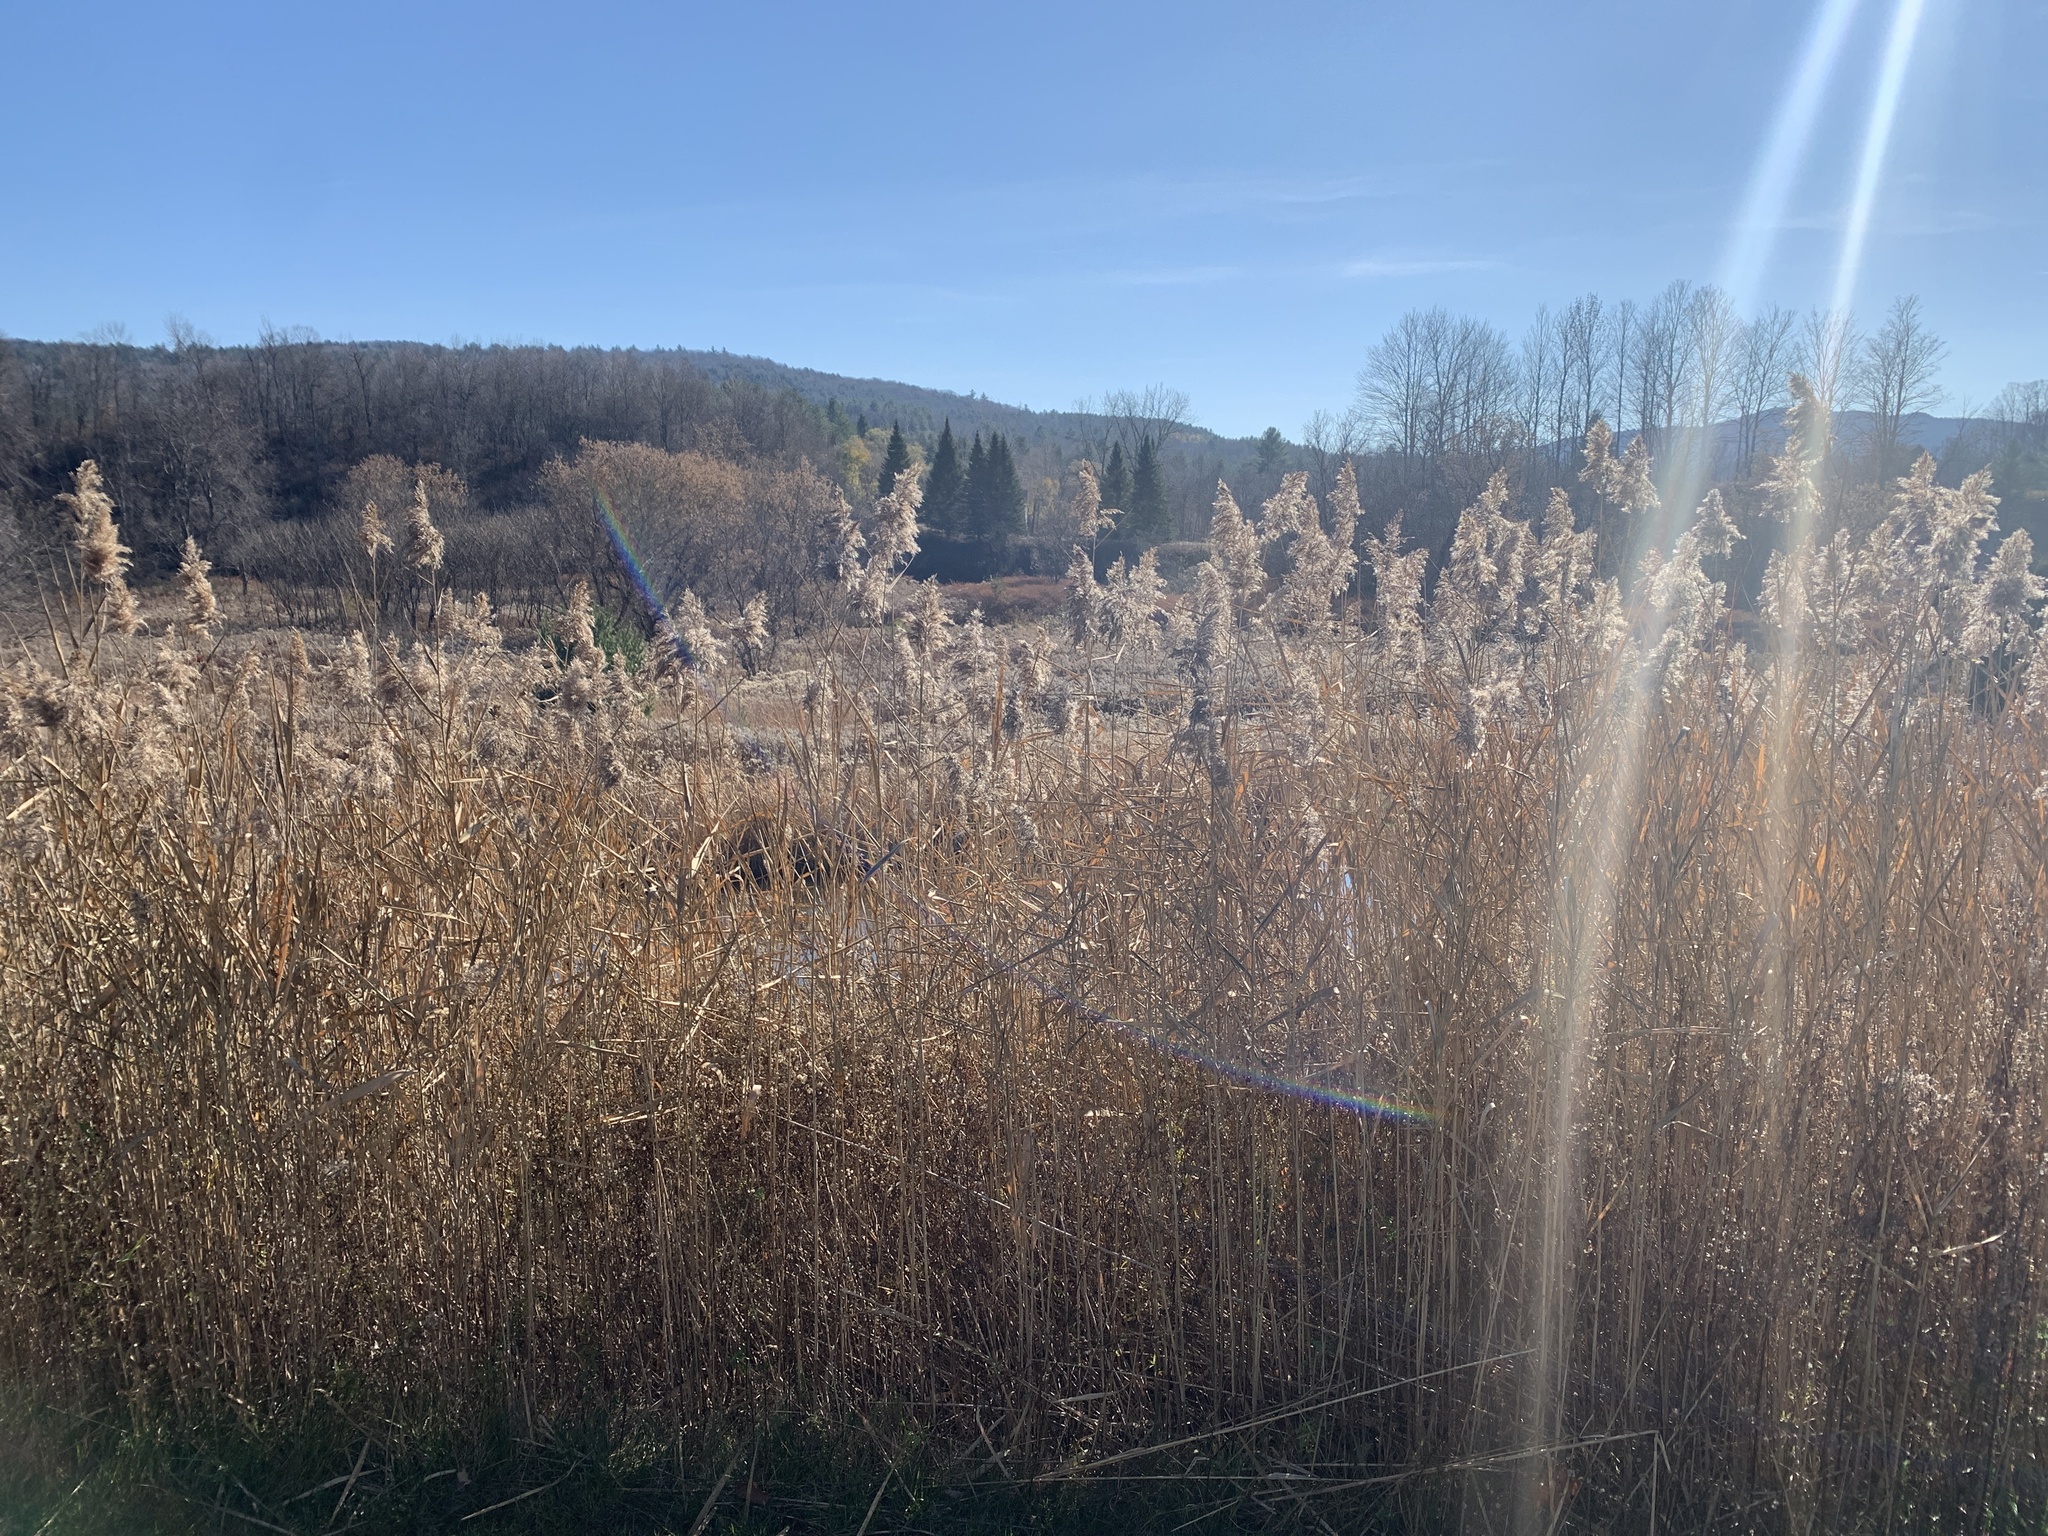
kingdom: Plantae
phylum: Tracheophyta
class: Liliopsida
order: Poales
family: Poaceae
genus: Phragmites
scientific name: Phragmites australis
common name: Common reed
